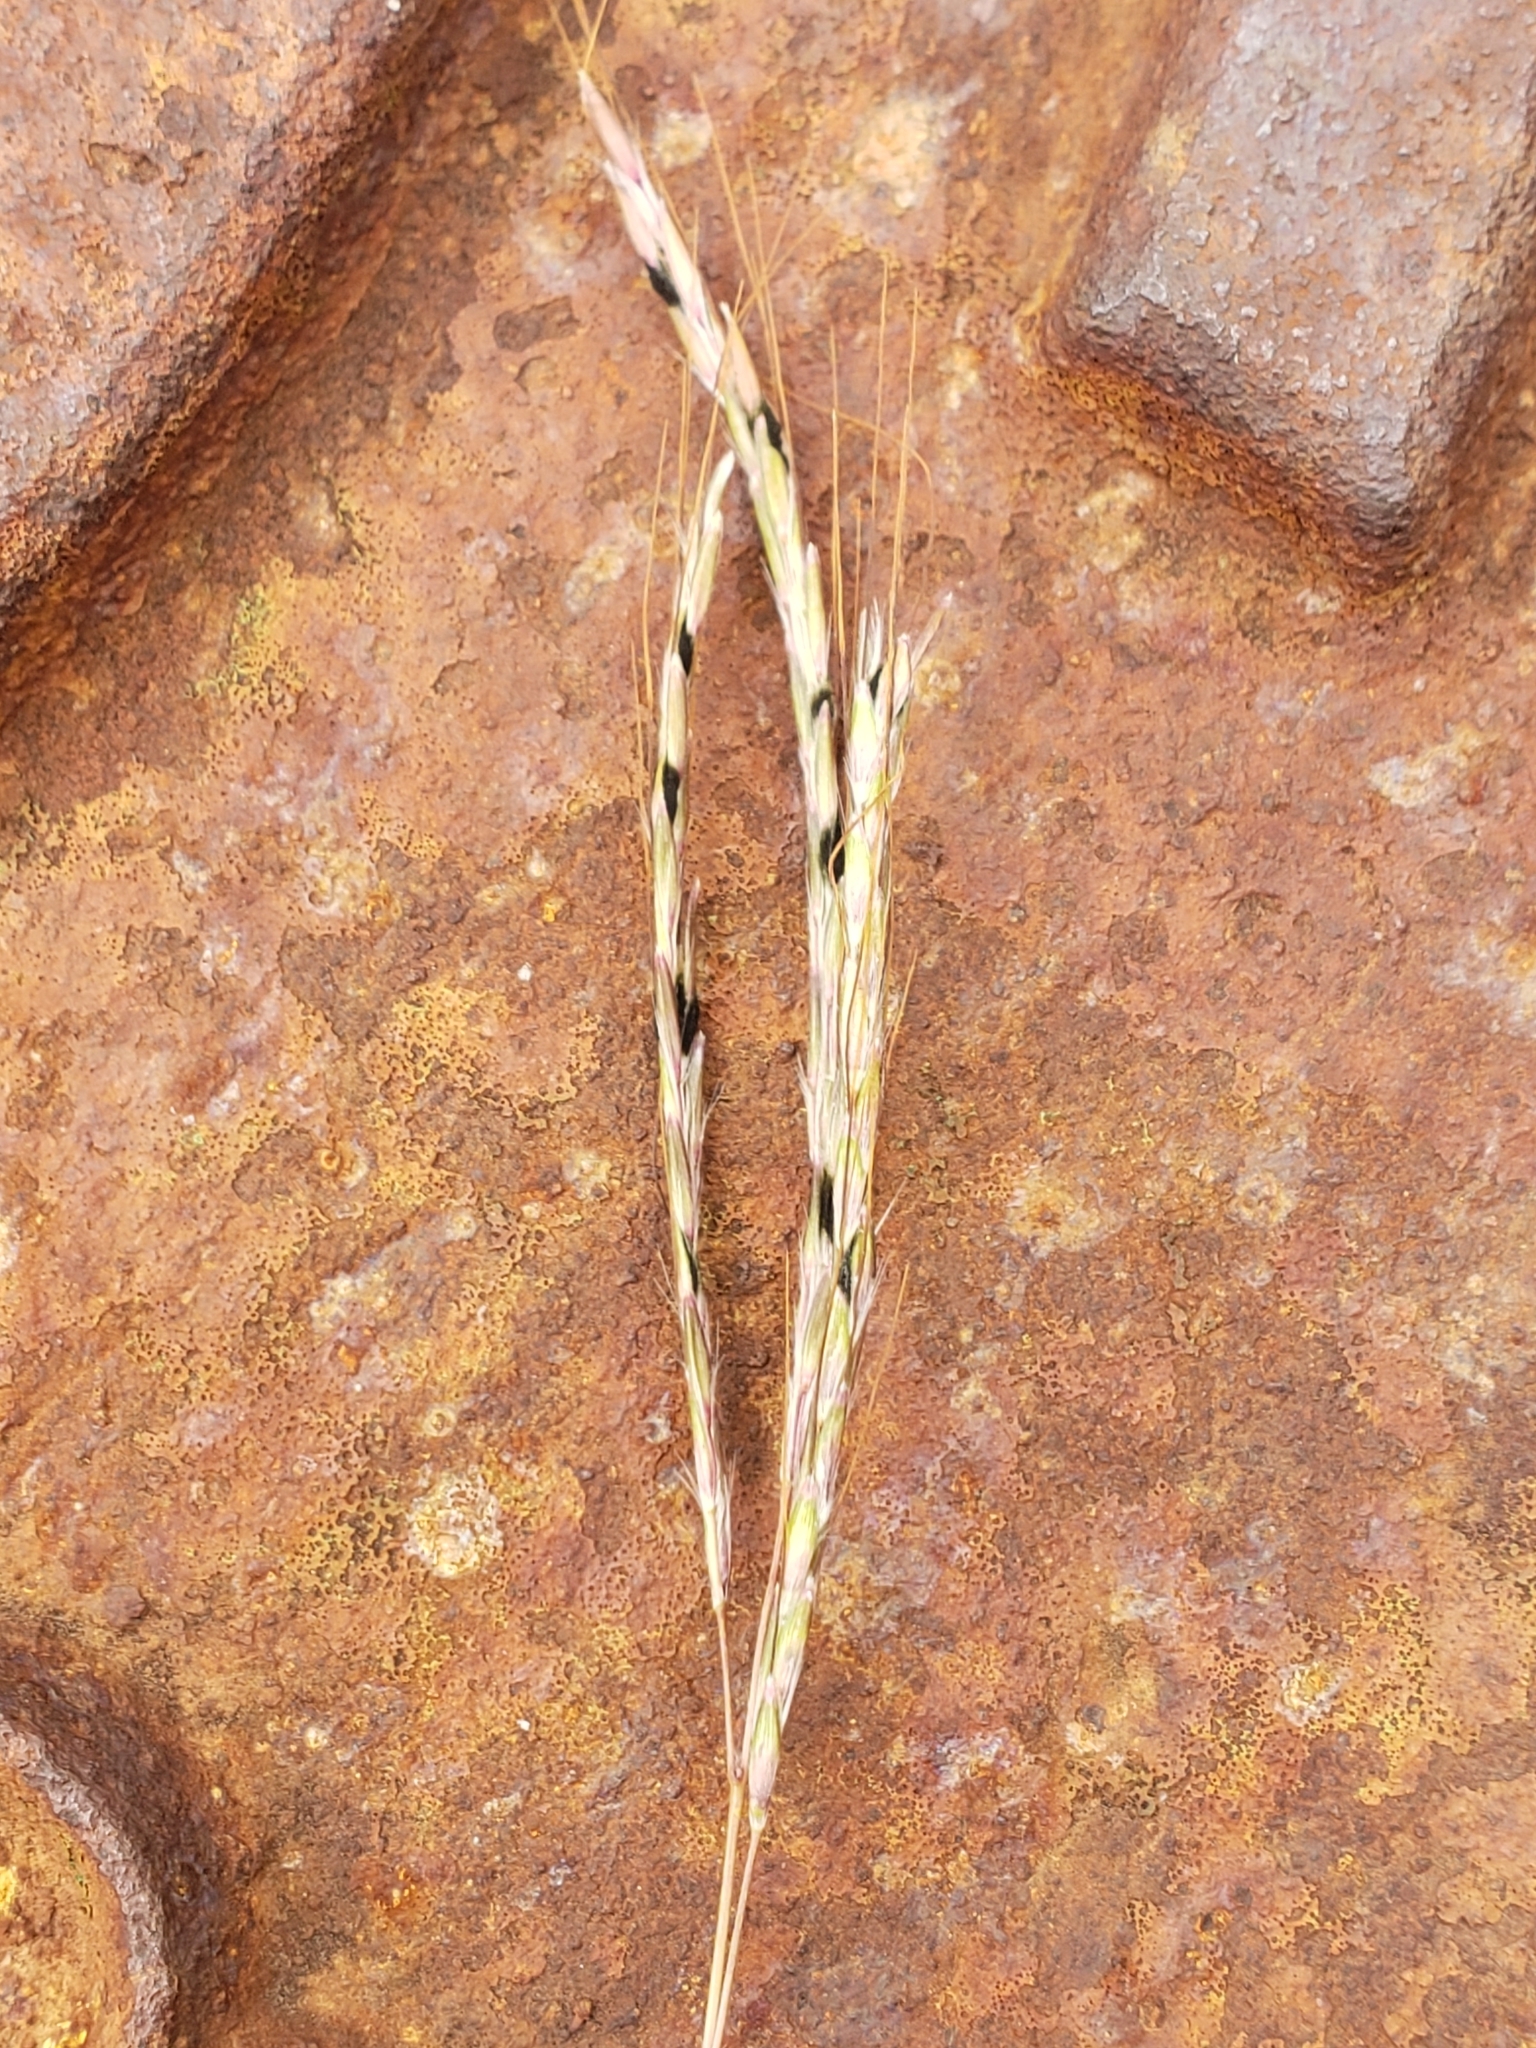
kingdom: Plantae
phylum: Tracheophyta
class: Liliopsida
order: Poales
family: Poaceae
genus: Bothriochloa
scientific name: Bothriochloa ischaemum
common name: Yellow bluestem
